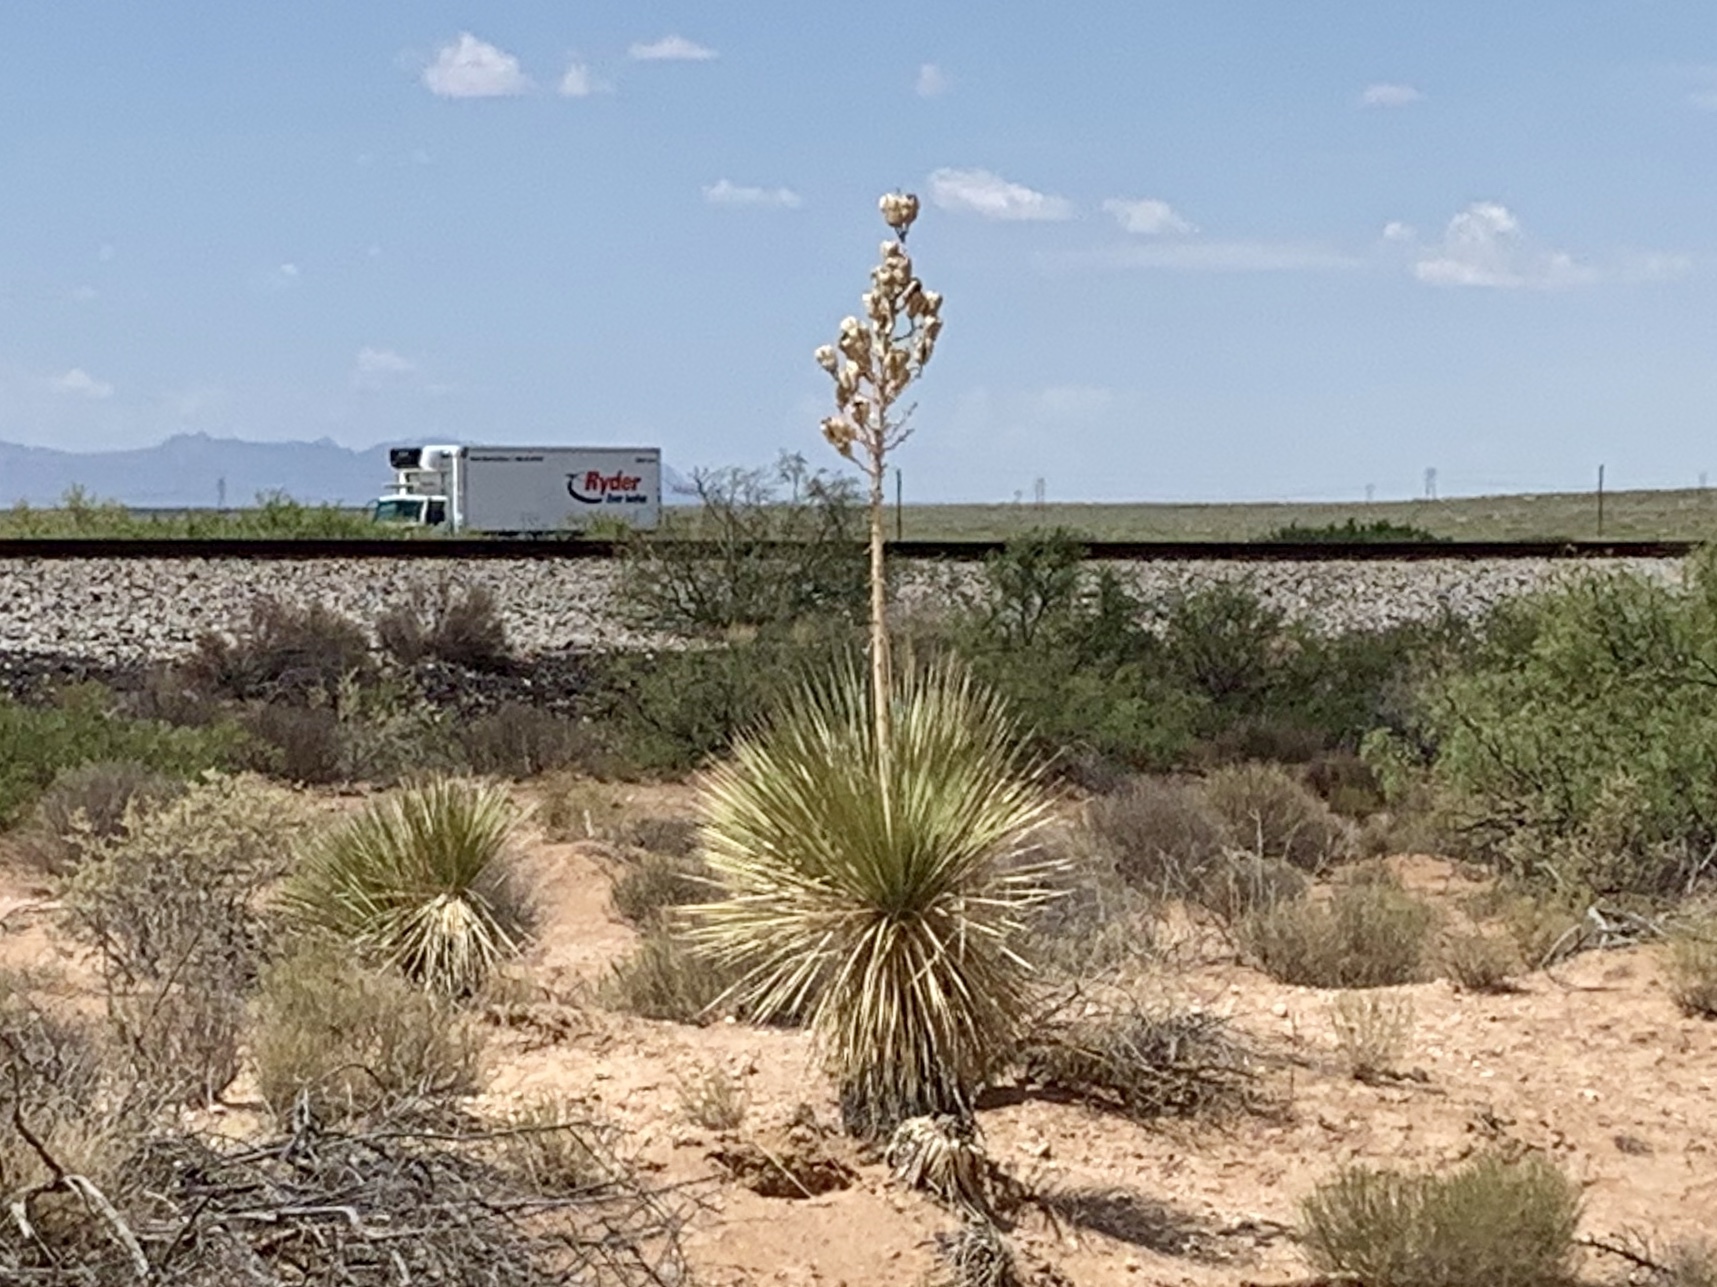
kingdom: Plantae
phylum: Tracheophyta
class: Liliopsida
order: Asparagales
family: Asparagaceae
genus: Yucca
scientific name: Yucca elata
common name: Palmella
